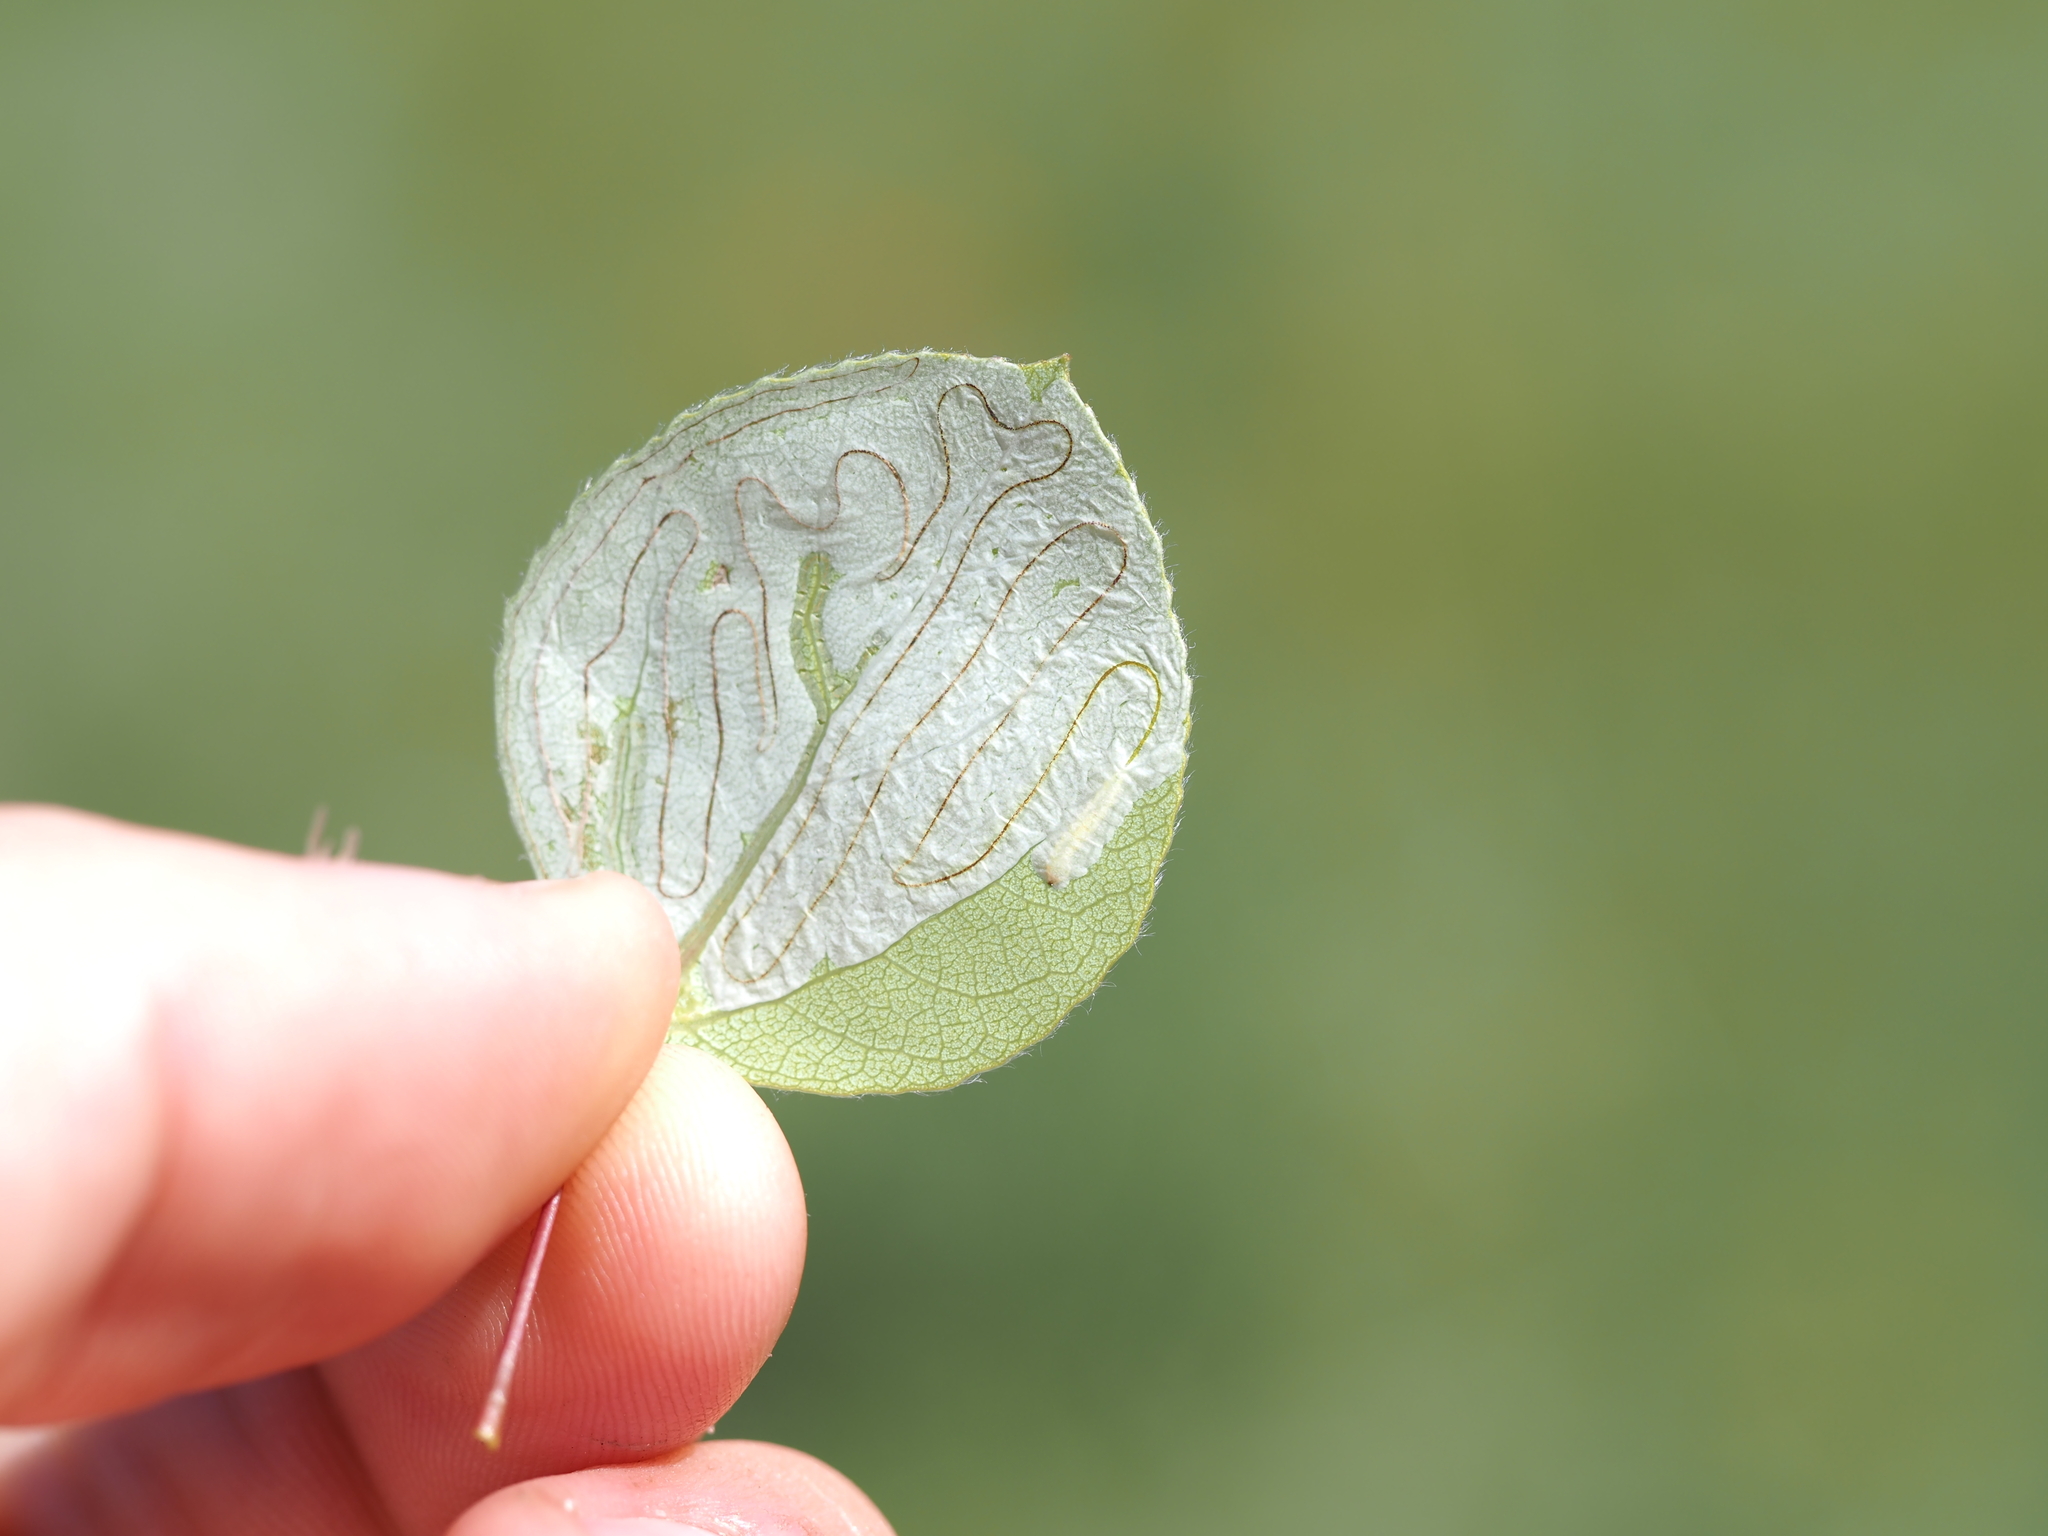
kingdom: Animalia
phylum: Arthropoda
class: Insecta
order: Lepidoptera
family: Gracillariidae
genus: Phyllocnistis
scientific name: Phyllocnistis populiella
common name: Aspen serpentine leafminer moth
